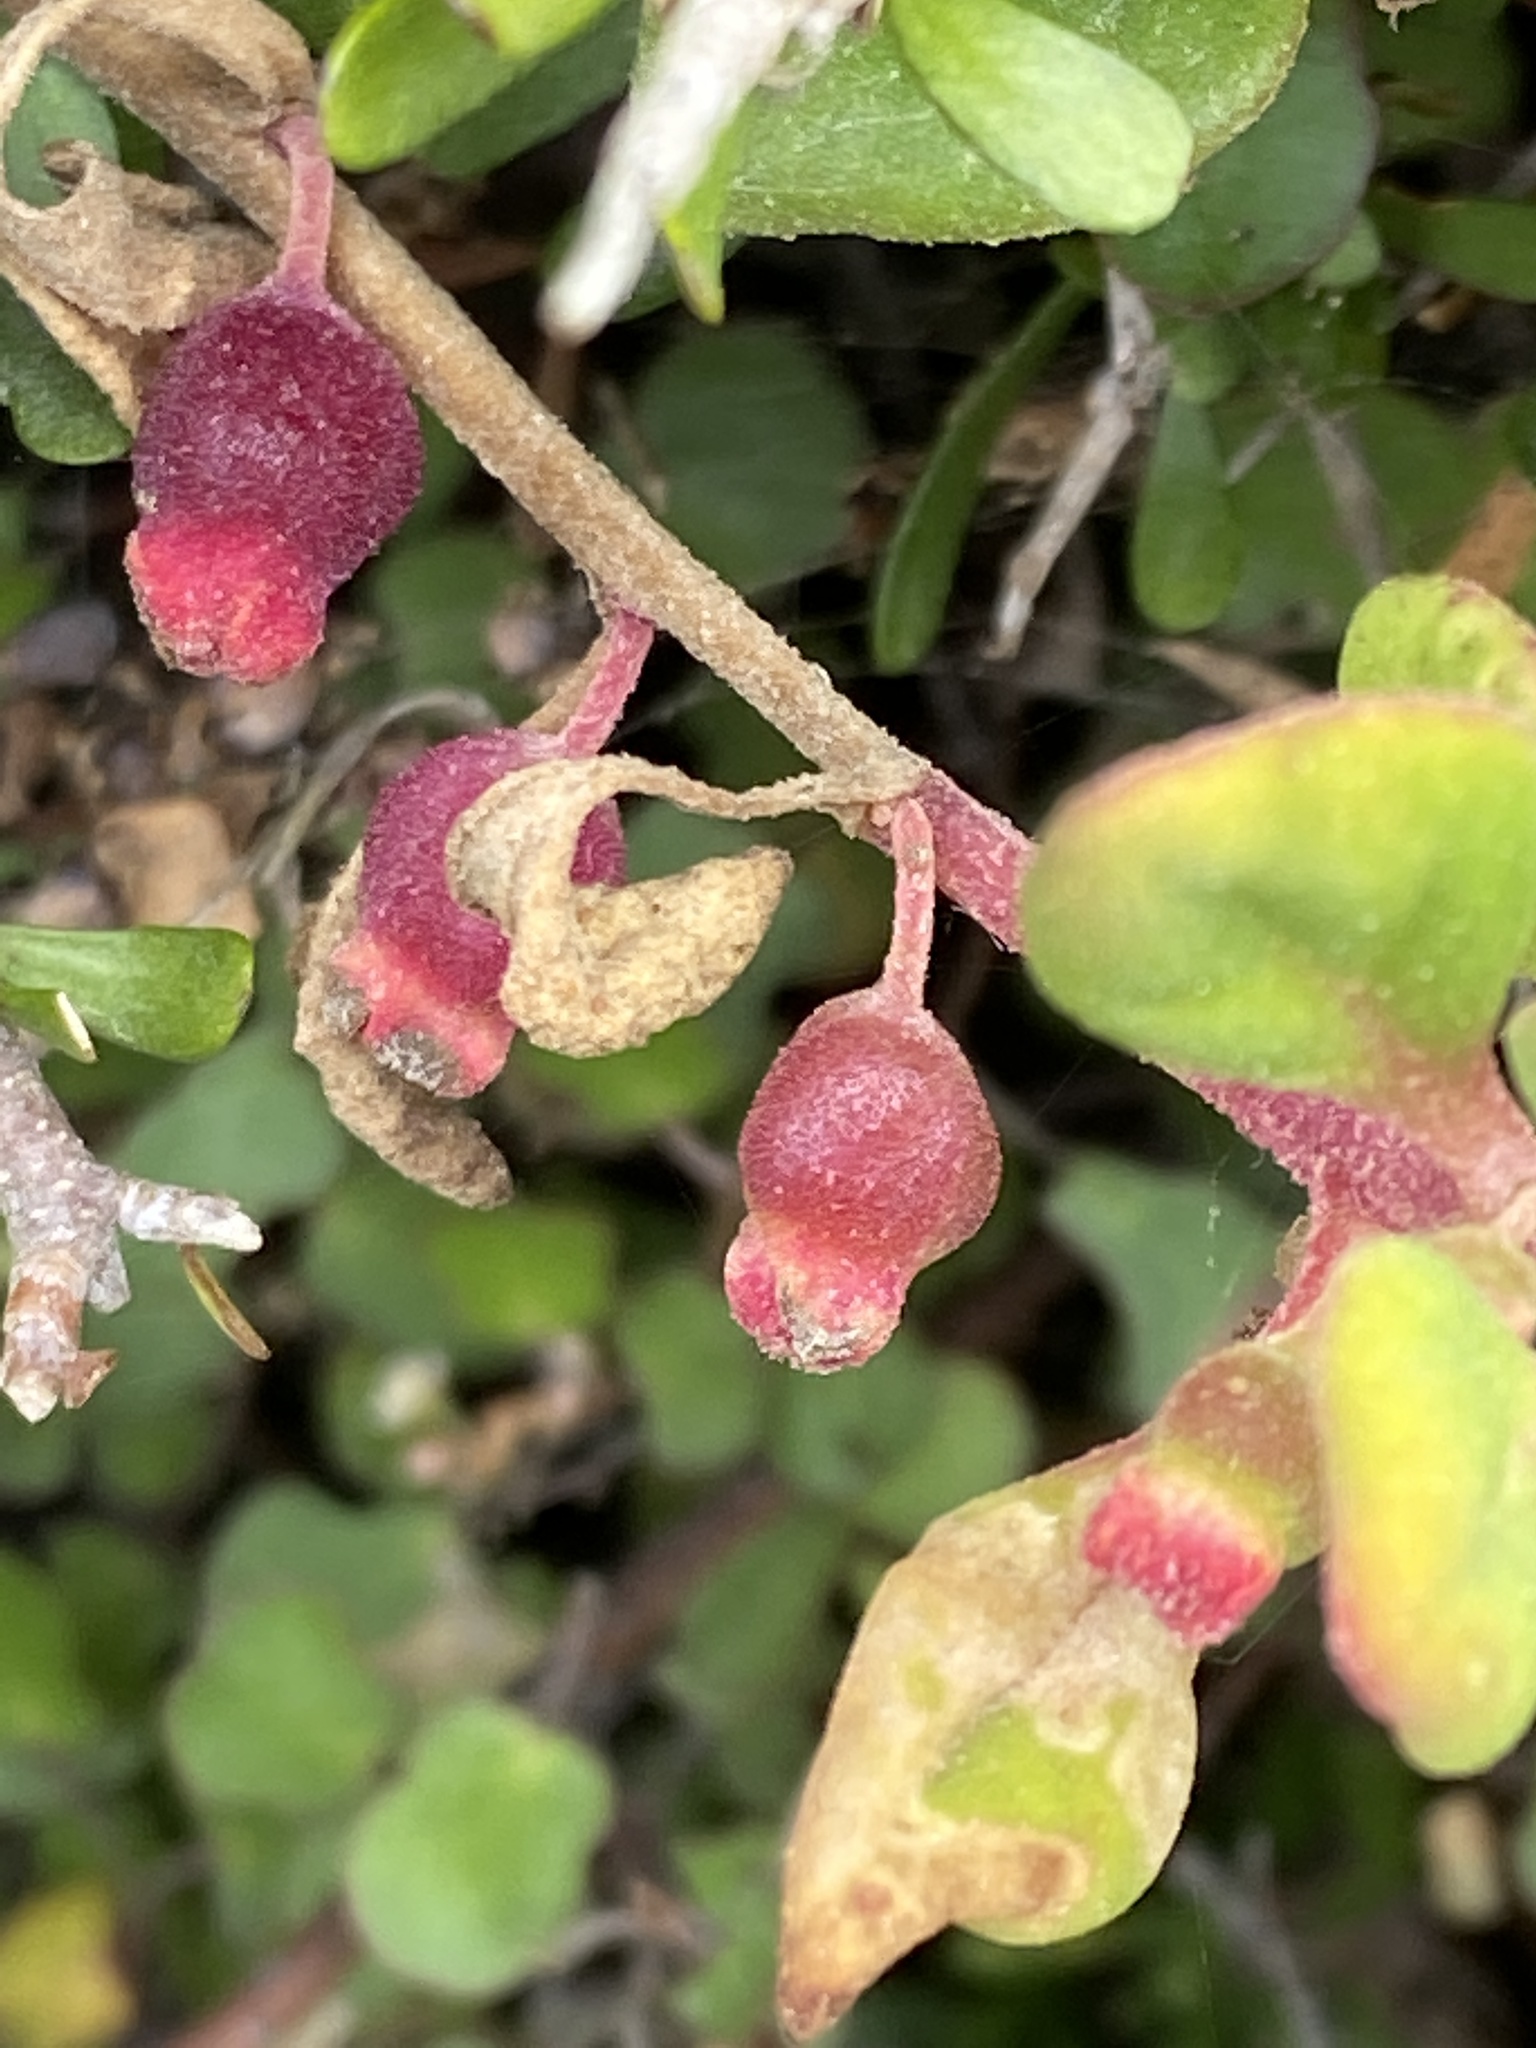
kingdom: Plantae
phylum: Tracheophyta
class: Magnoliopsida
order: Caryophyllales
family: Aizoaceae
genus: Tetragonia
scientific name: Tetragonia implexicoma
